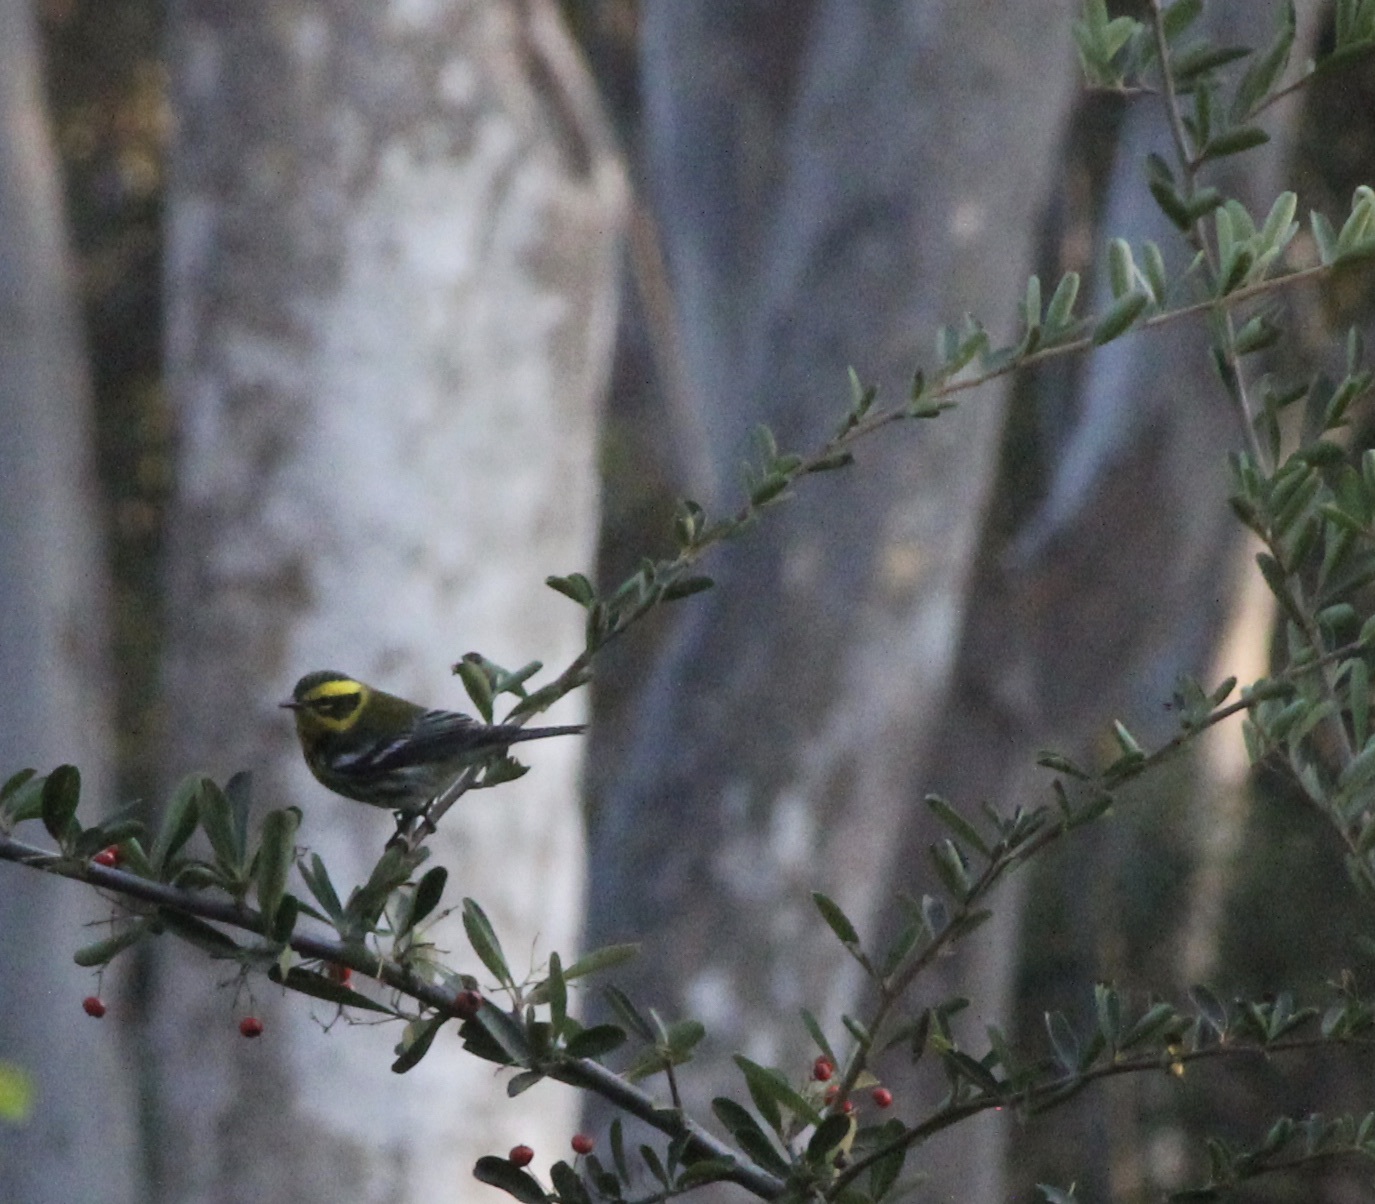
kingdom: Animalia
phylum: Chordata
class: Aves
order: Passeriformes
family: Parulidae
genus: Setophaga
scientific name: Setophaga townsendi
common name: Townsend's warbler
